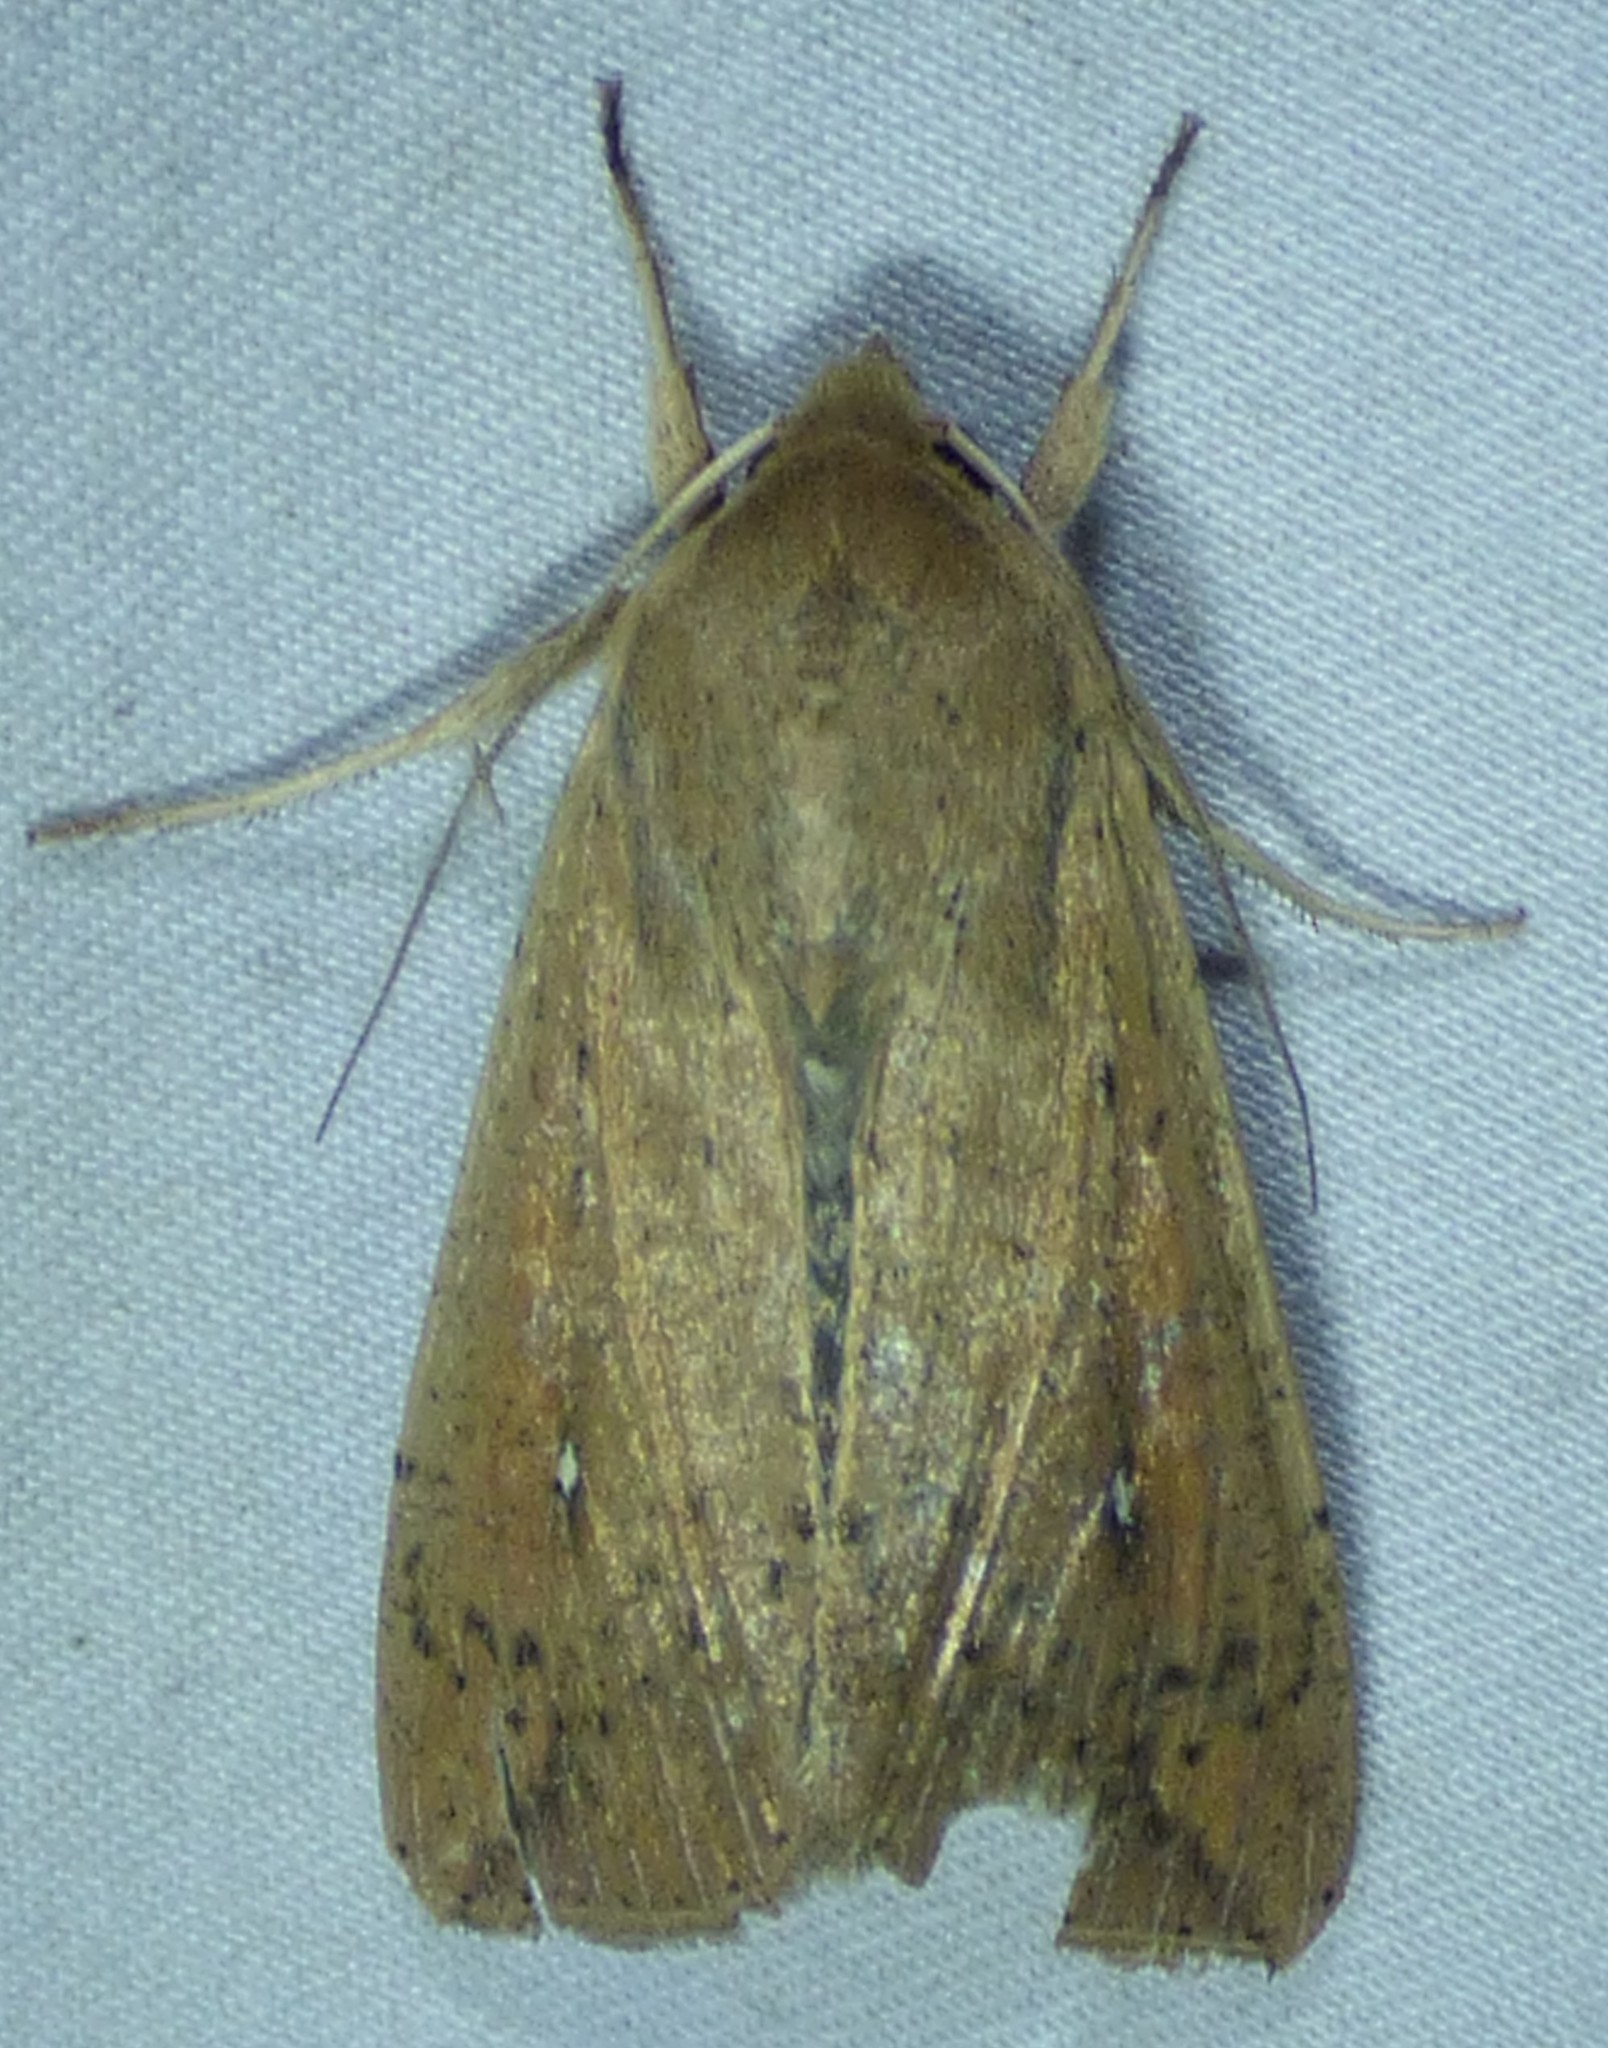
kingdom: Animalia
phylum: Arthropoda
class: Insecta
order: Lepidoptera
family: Noctuidae
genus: Mythimna
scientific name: Mythimna unipuncta
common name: White-speck
